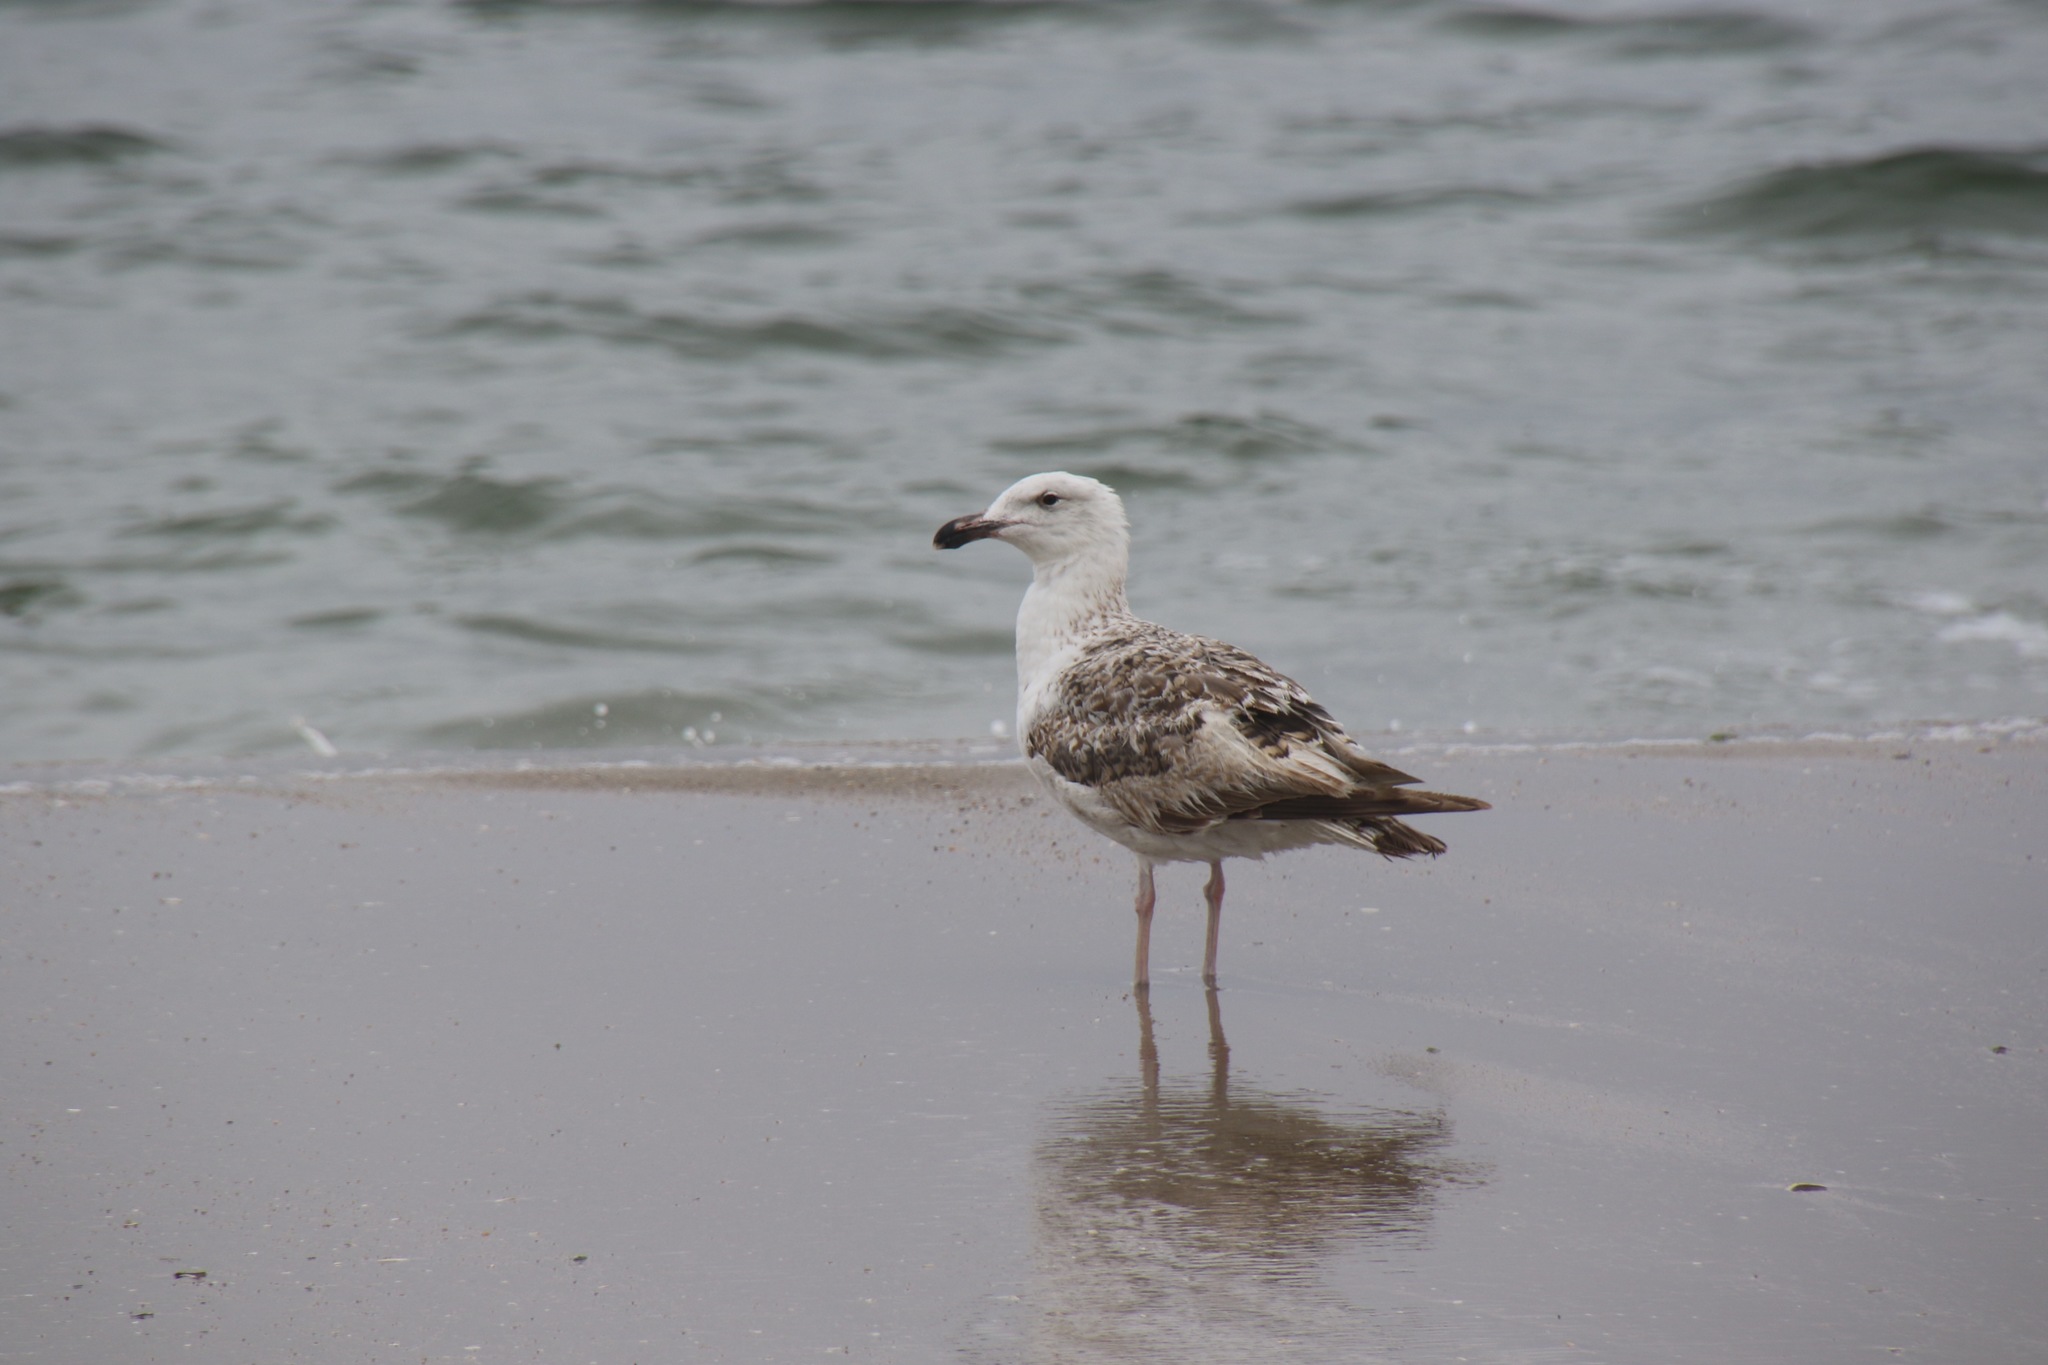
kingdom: Animalia
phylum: Chordata
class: Aves
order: Charadriiformes
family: Laridae
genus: Larus
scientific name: Larus marinus
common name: Great black-backed gull
